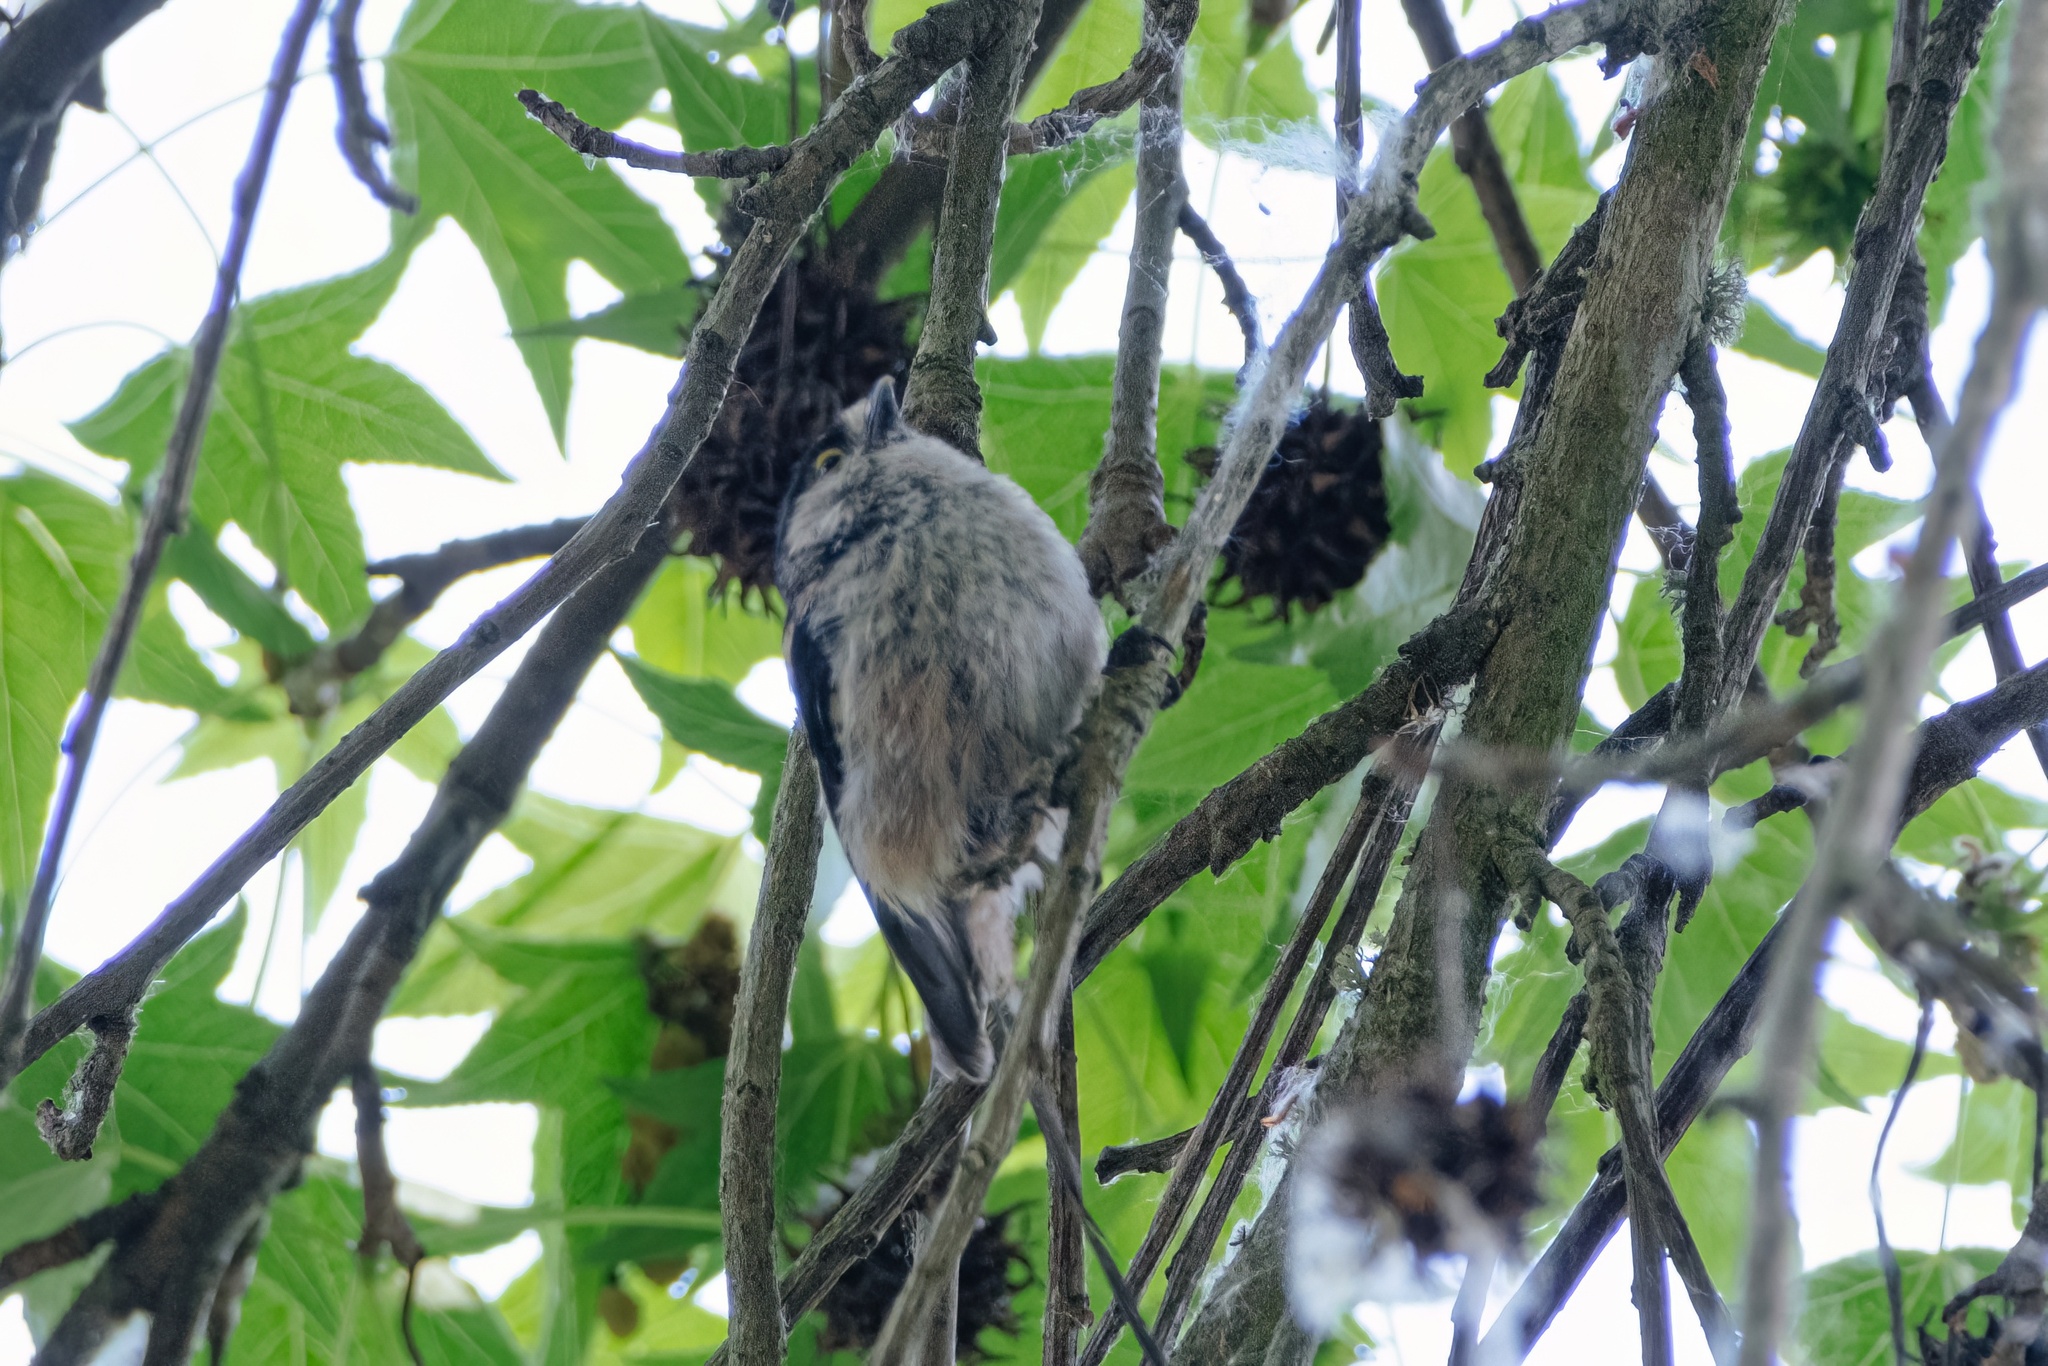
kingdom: Animalia
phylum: Chordata
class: Aves
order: Passeriformes
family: Aegithalidae
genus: Aegithalos
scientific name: Aegithalos caudatus
